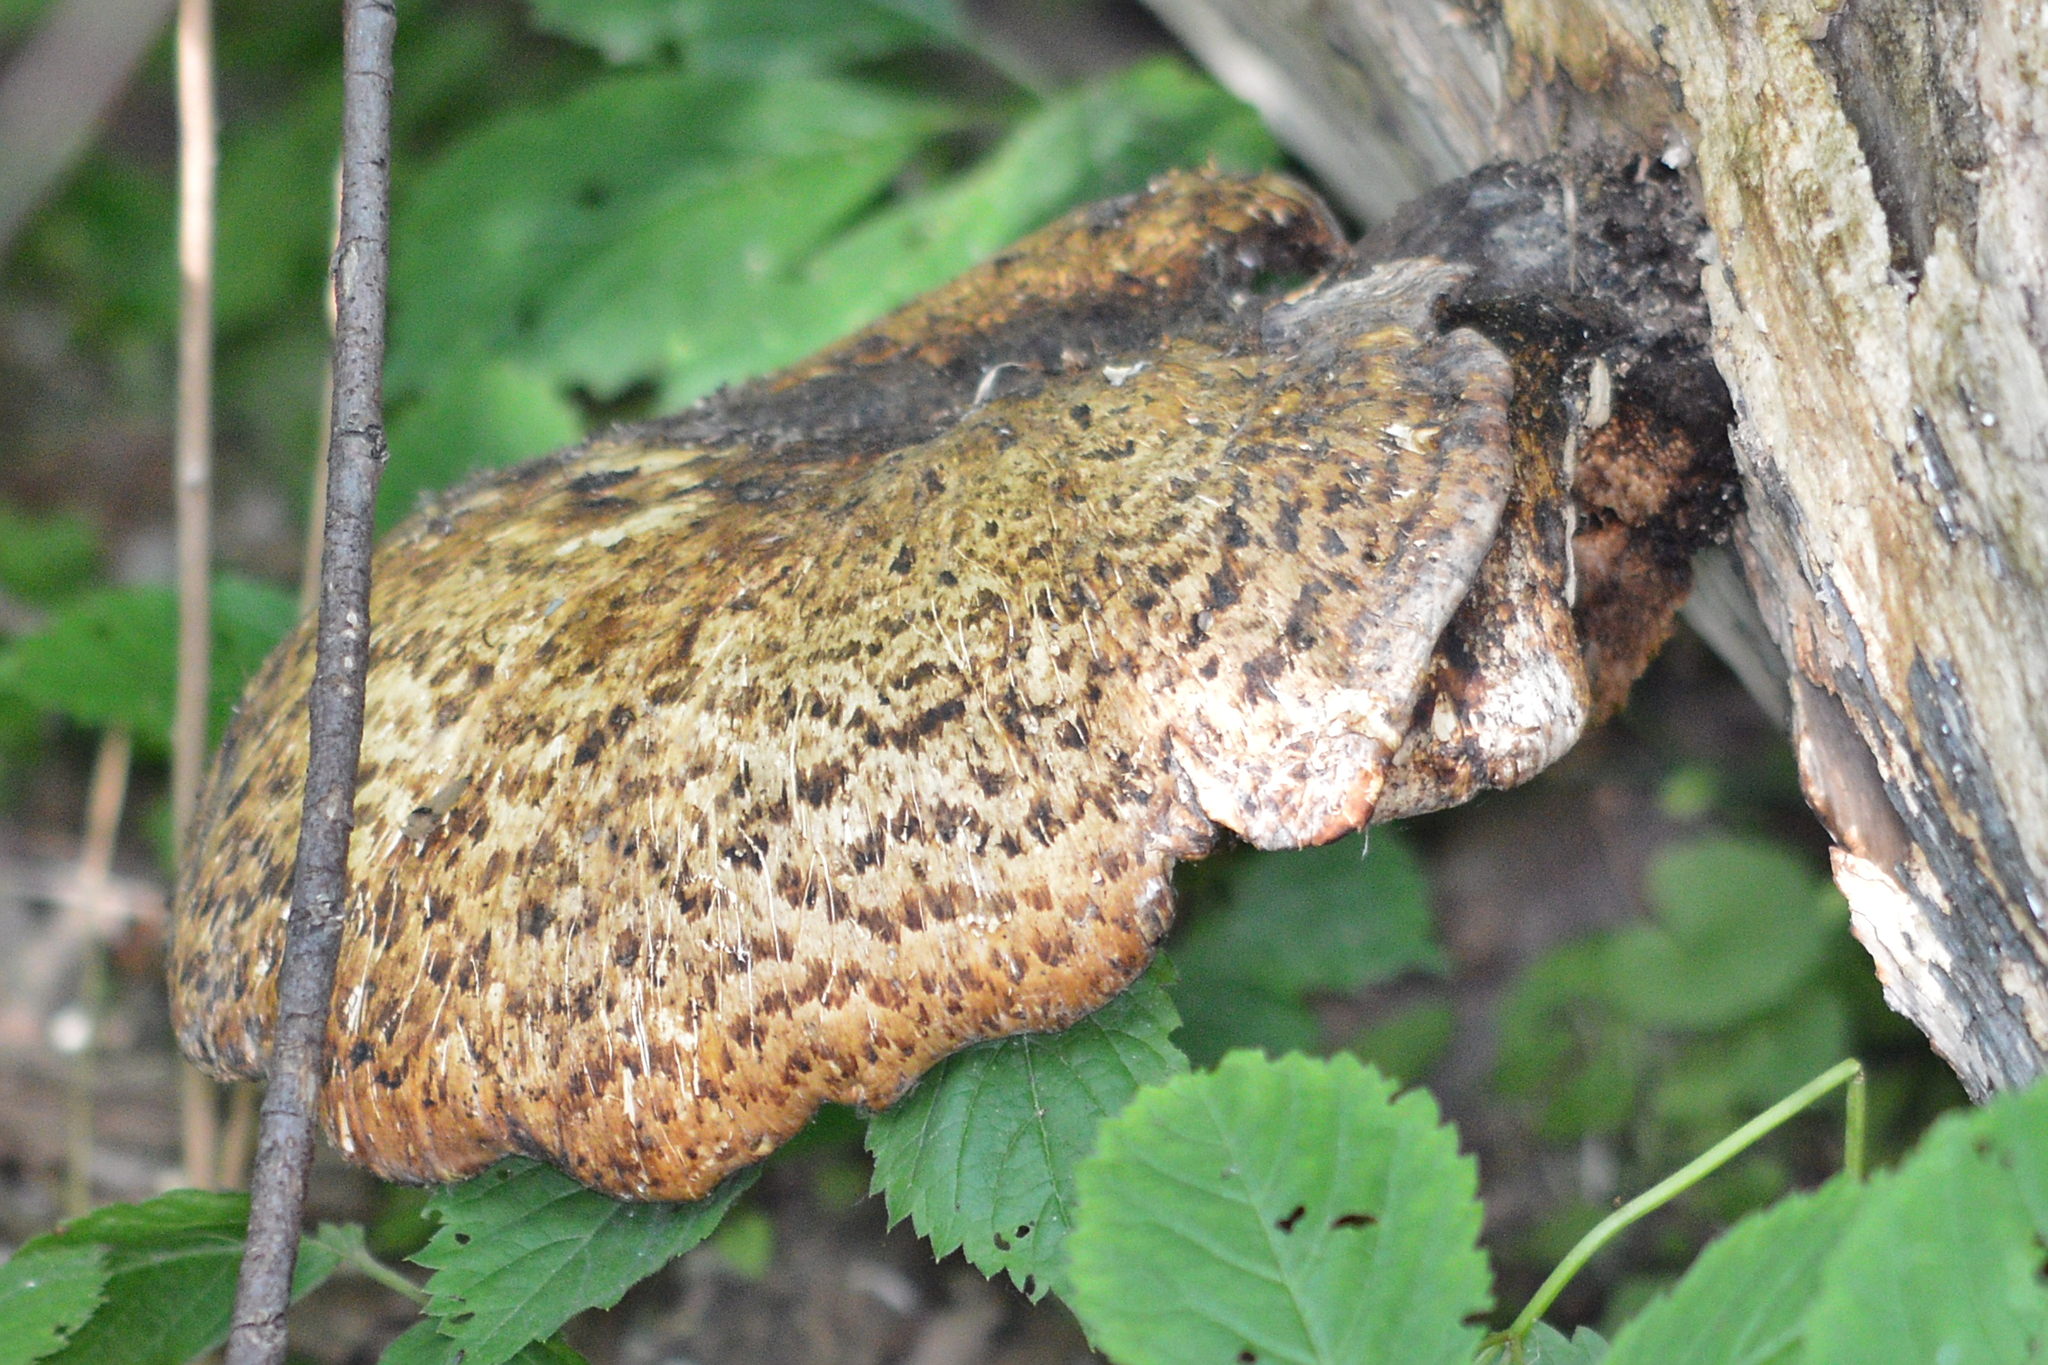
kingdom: Fungi
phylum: Basidiomycota
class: Agaricomycetes
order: Polyporales
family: Polyporaceae
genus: Cerioporus
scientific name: Cerioporus squamosus
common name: Dryad's saddle
